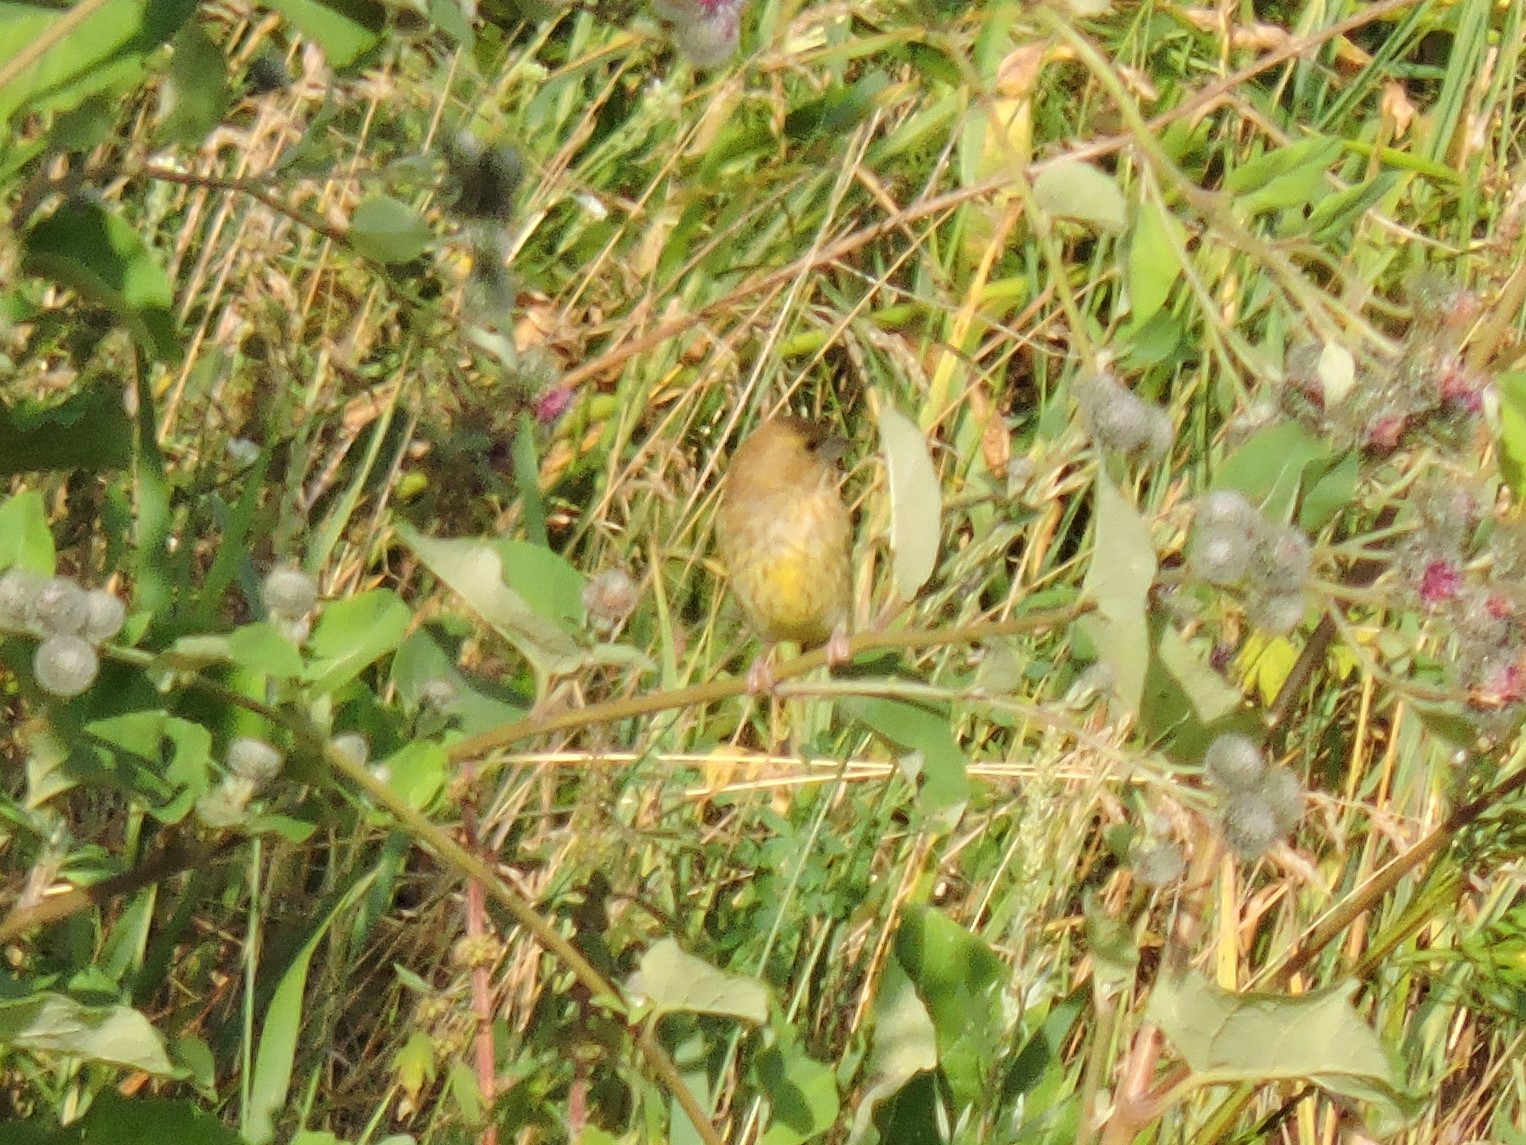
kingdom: Plantae
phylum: Tracheophyta
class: Liliopsida
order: Poales
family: Poaceae
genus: Chloris
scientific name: Chloris chloris
